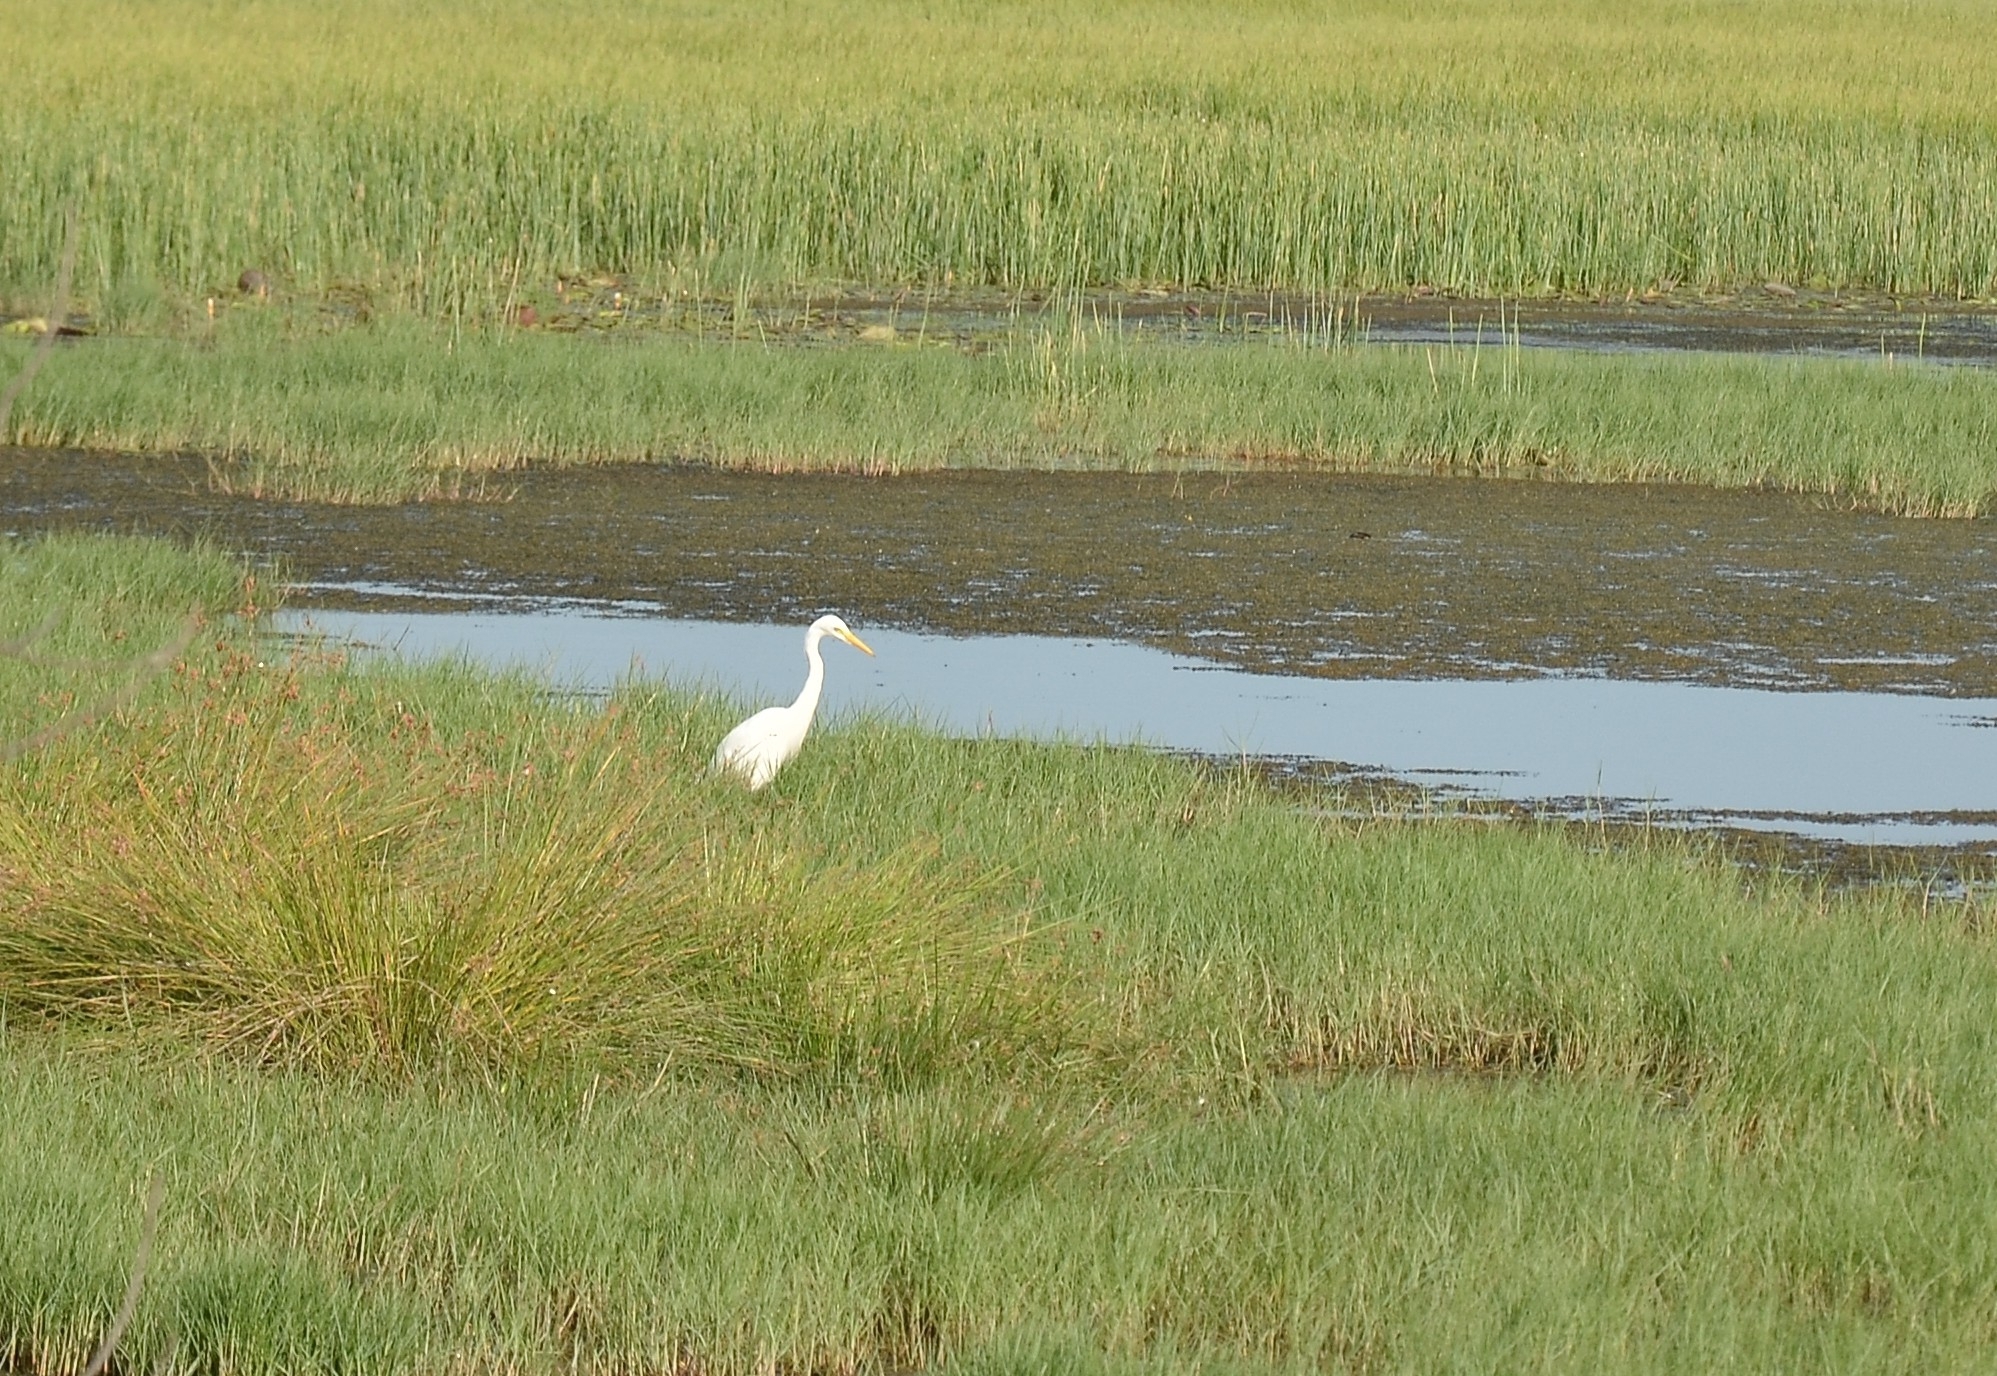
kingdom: Animalia
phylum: Chordata
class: Aves
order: Pelecaniformes
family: Ardeidae
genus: Egretta
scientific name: Egretta intermedia
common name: Intermediate egret
